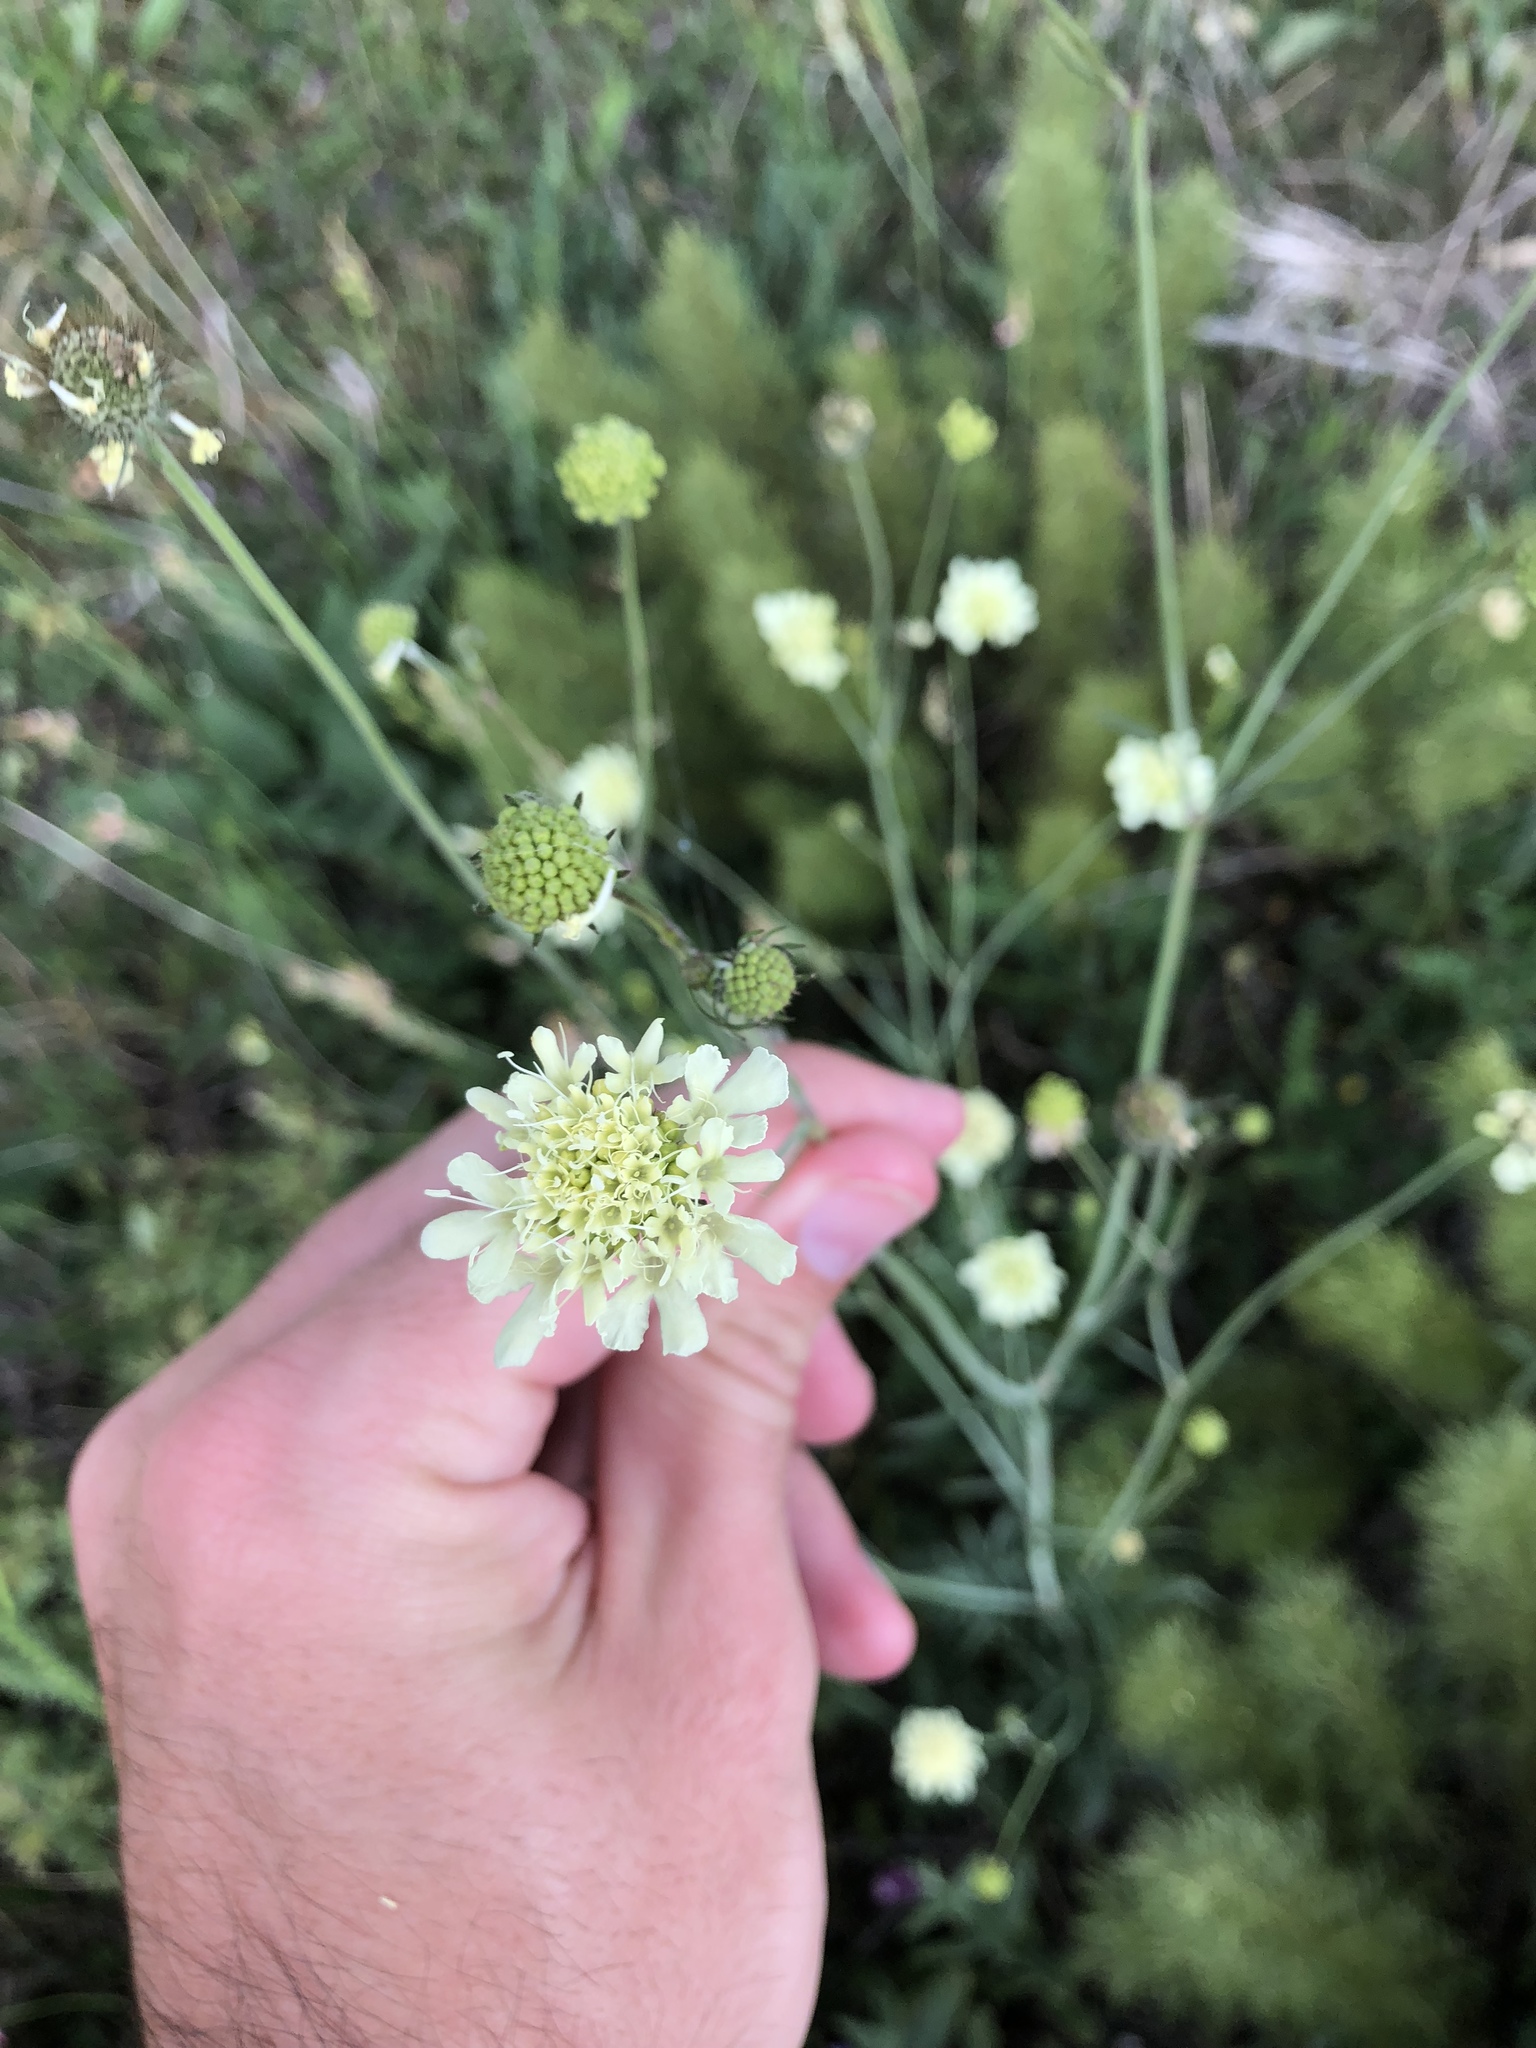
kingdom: Plantae
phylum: Tracheophyta
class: Magnoliopsida
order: Dipsacales
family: Caprifoliaceae
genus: Scabiosa
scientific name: Scabiosa ochroleuca
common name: Cream pincushions
